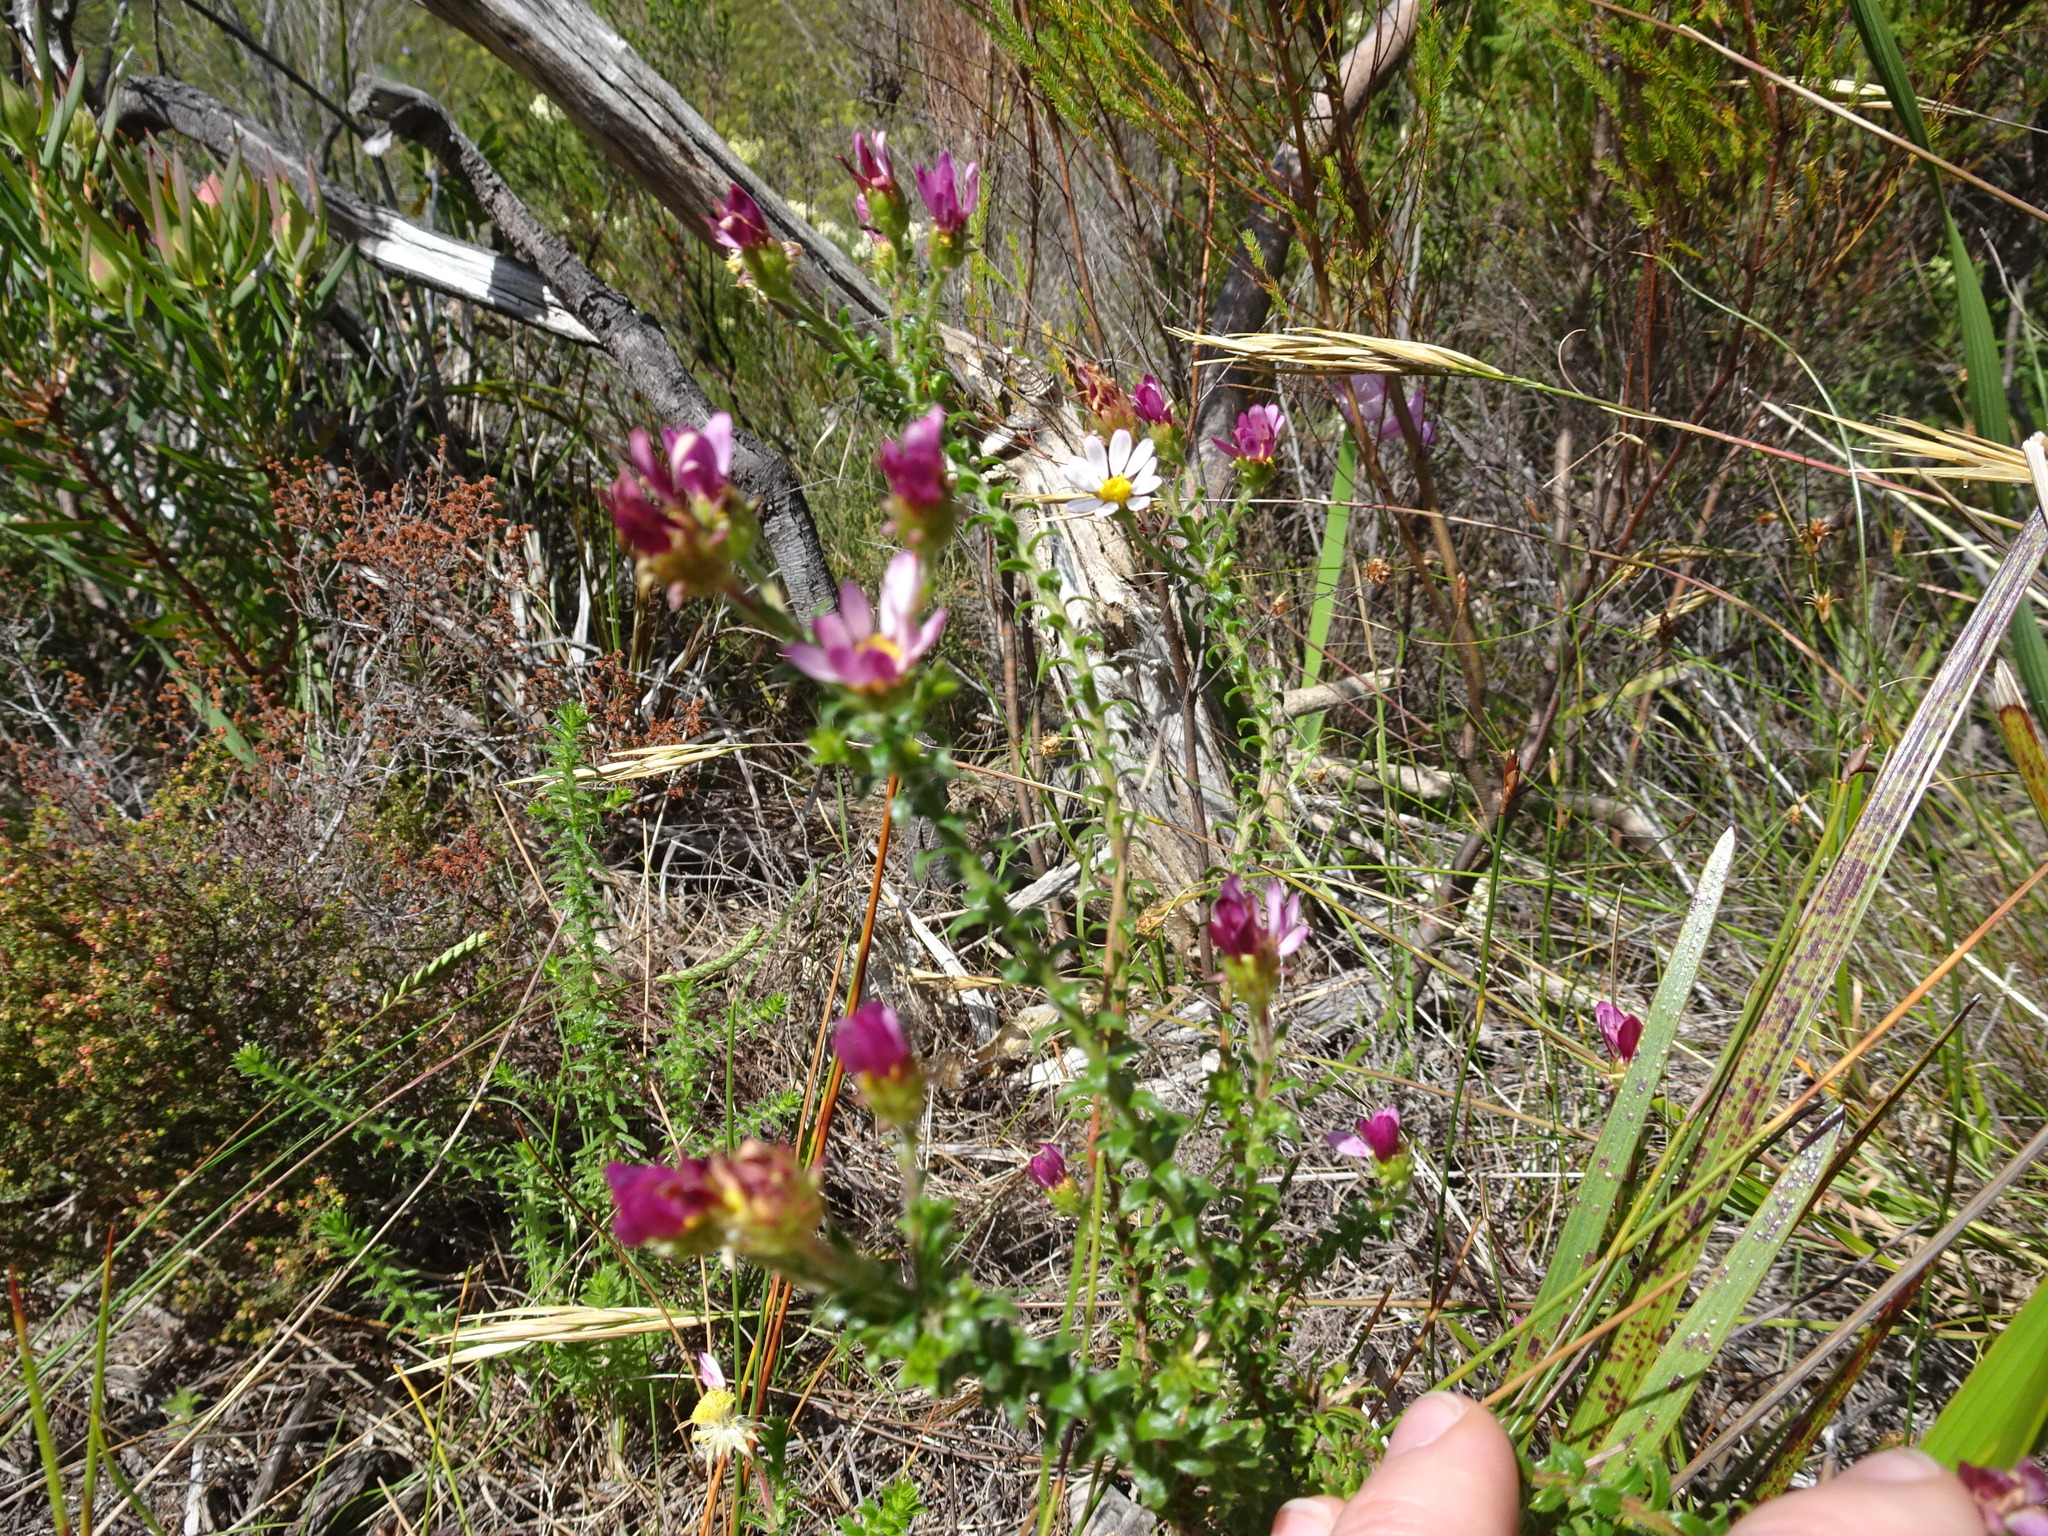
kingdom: Plantae
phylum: Tracheophyta
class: Magnoliopsida
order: Asterales
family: Asteraceae
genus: Polyarrhena
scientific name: Polyarrhena reflexa
